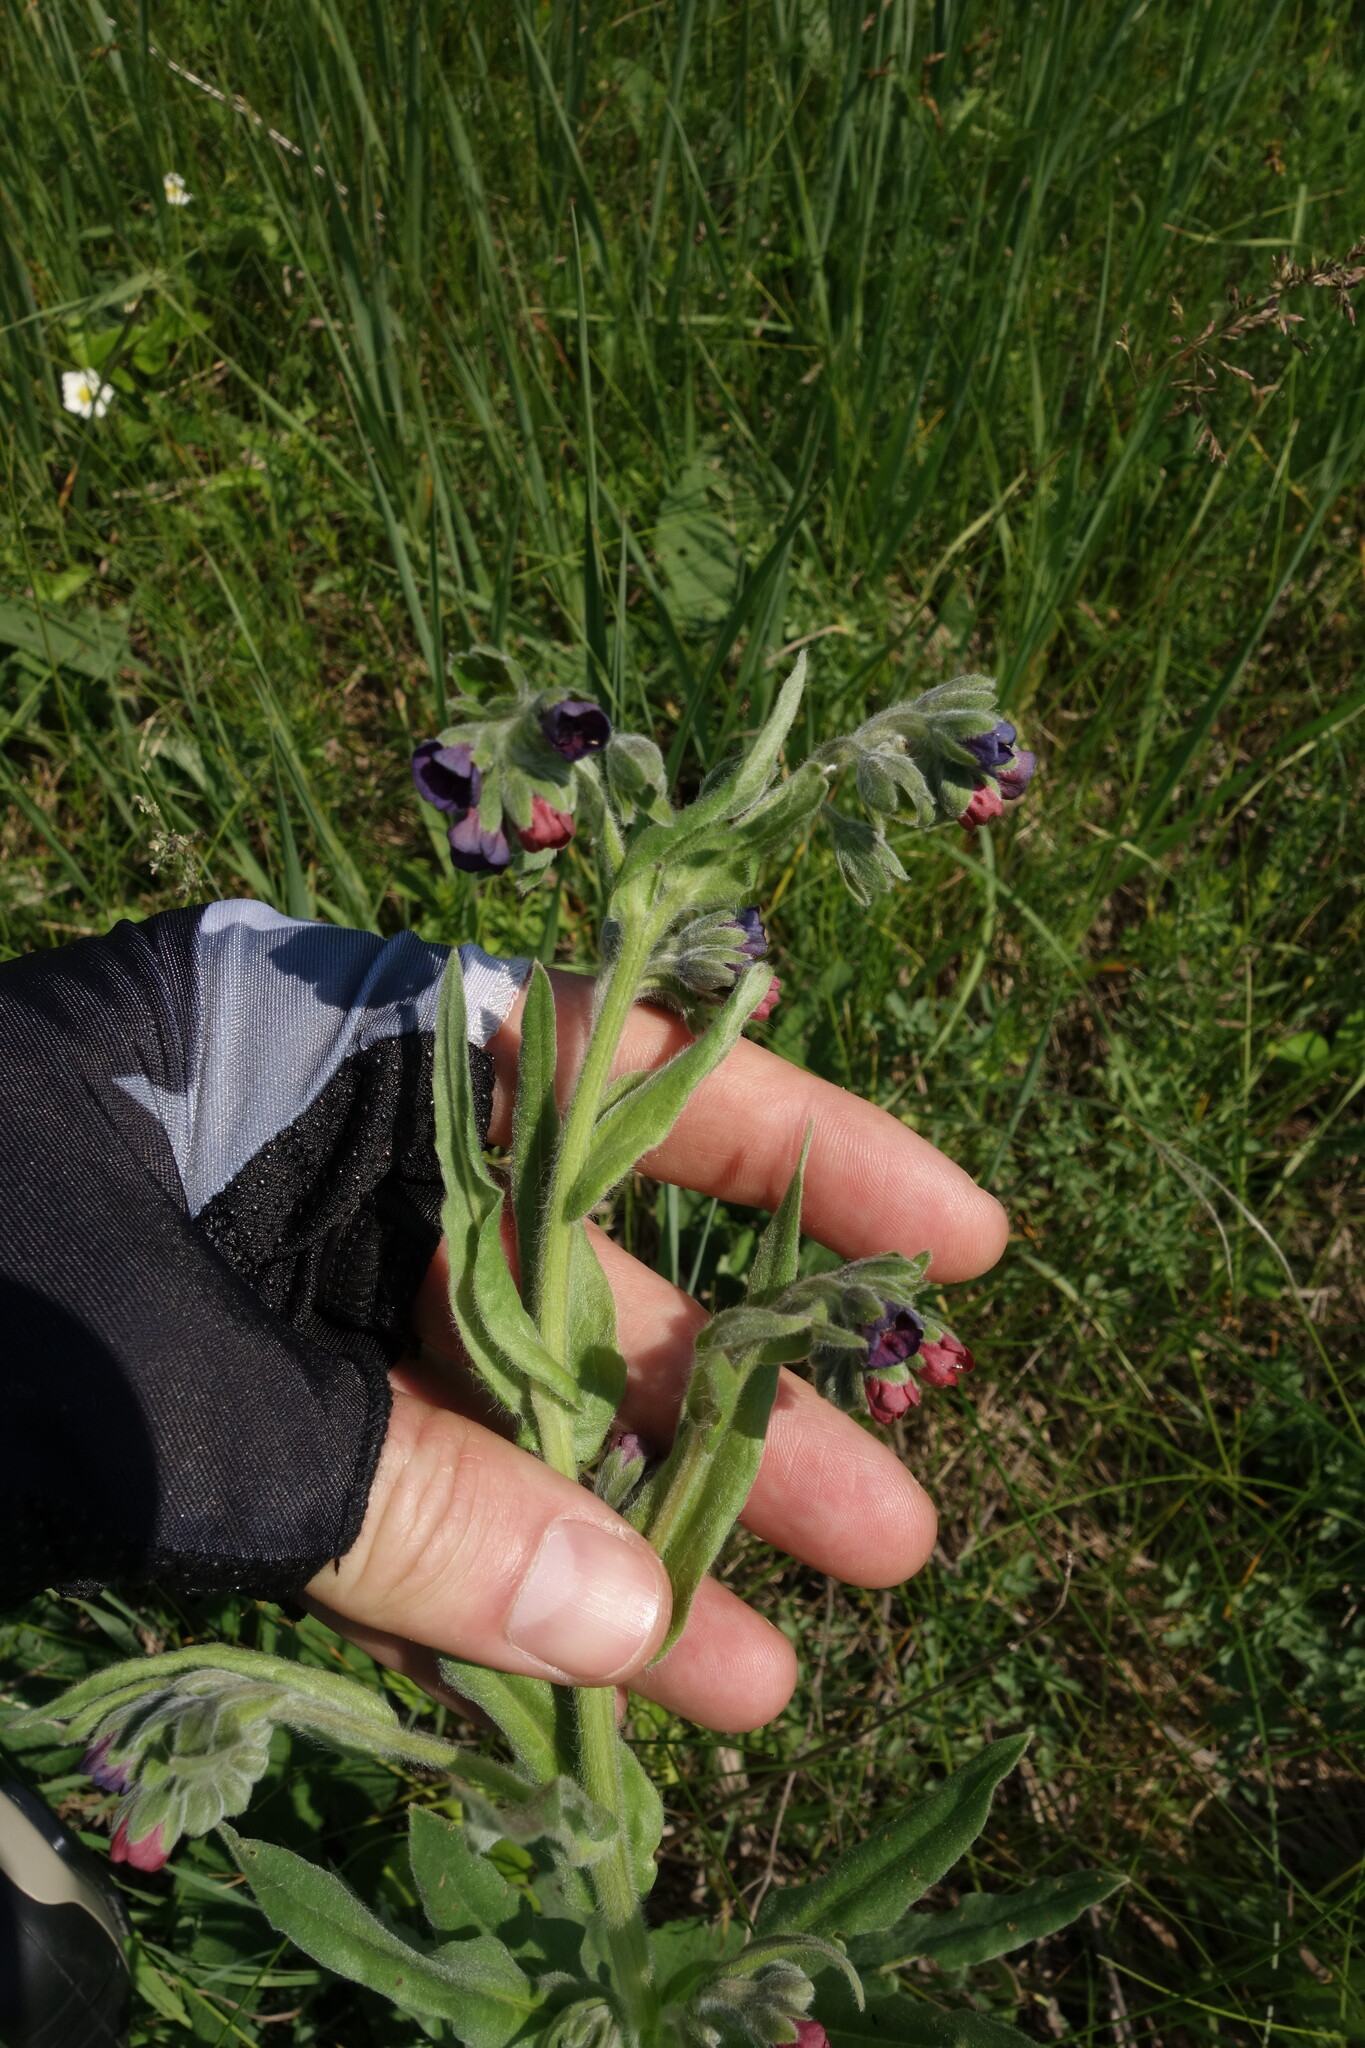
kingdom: Plantae
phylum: Tracheophyta
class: Magnoliopsida
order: Boraginales
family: Boraginaceae
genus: Cynoglossum
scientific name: Cynoglossum officinale
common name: Hound's-tongue
